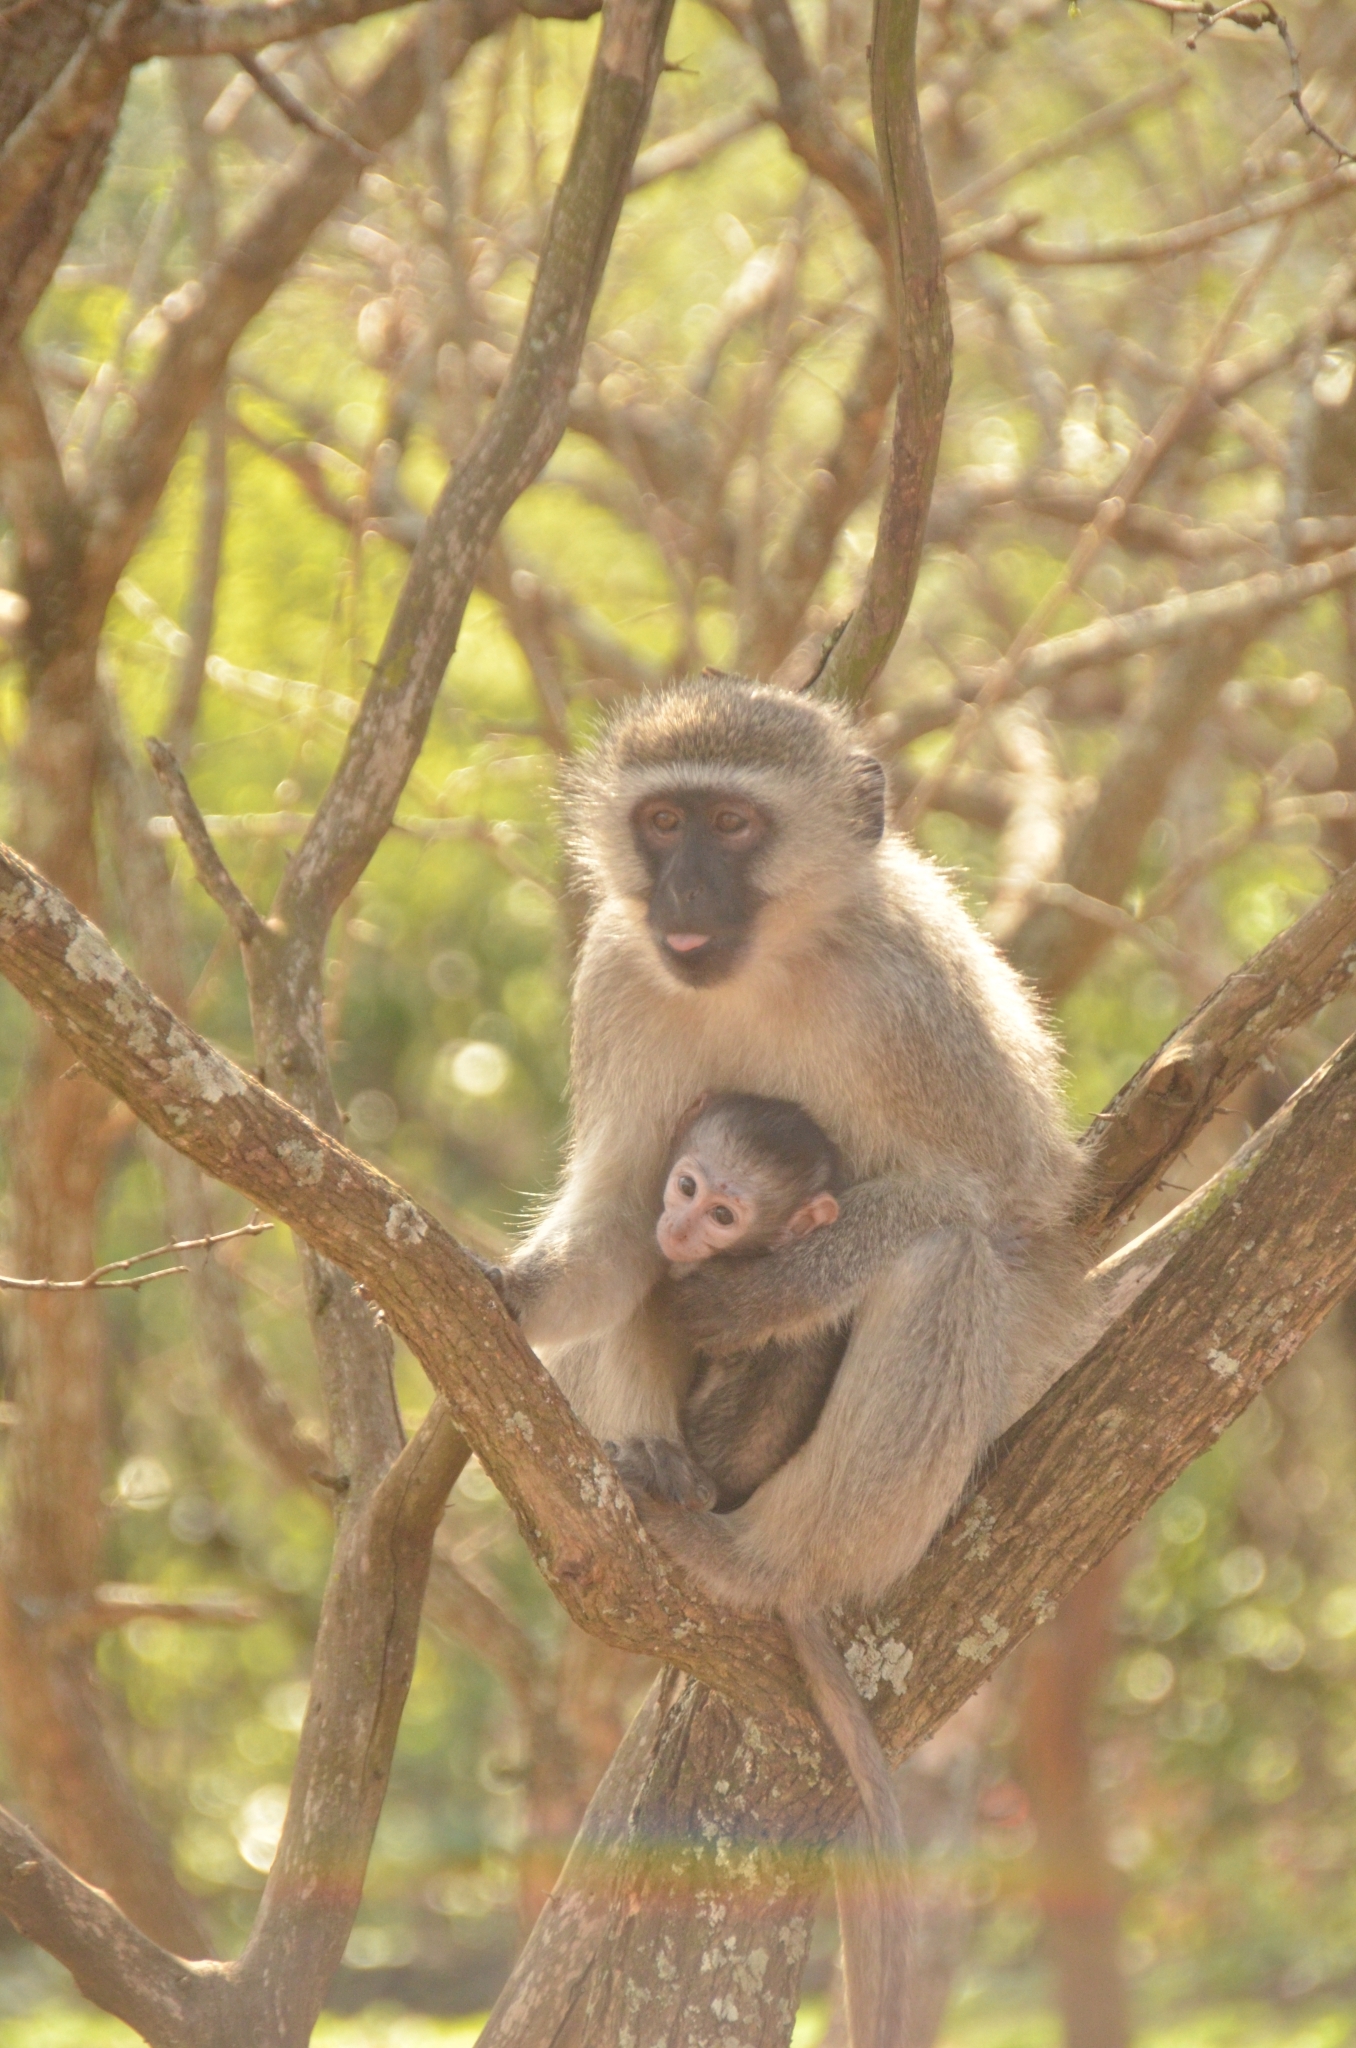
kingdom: Animalia
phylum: Chordata
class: Mammalia
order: Primates
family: Cercopithecidae
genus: Chlorocebus
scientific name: Chlorocebus pygerythrus
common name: Vervet monkey
